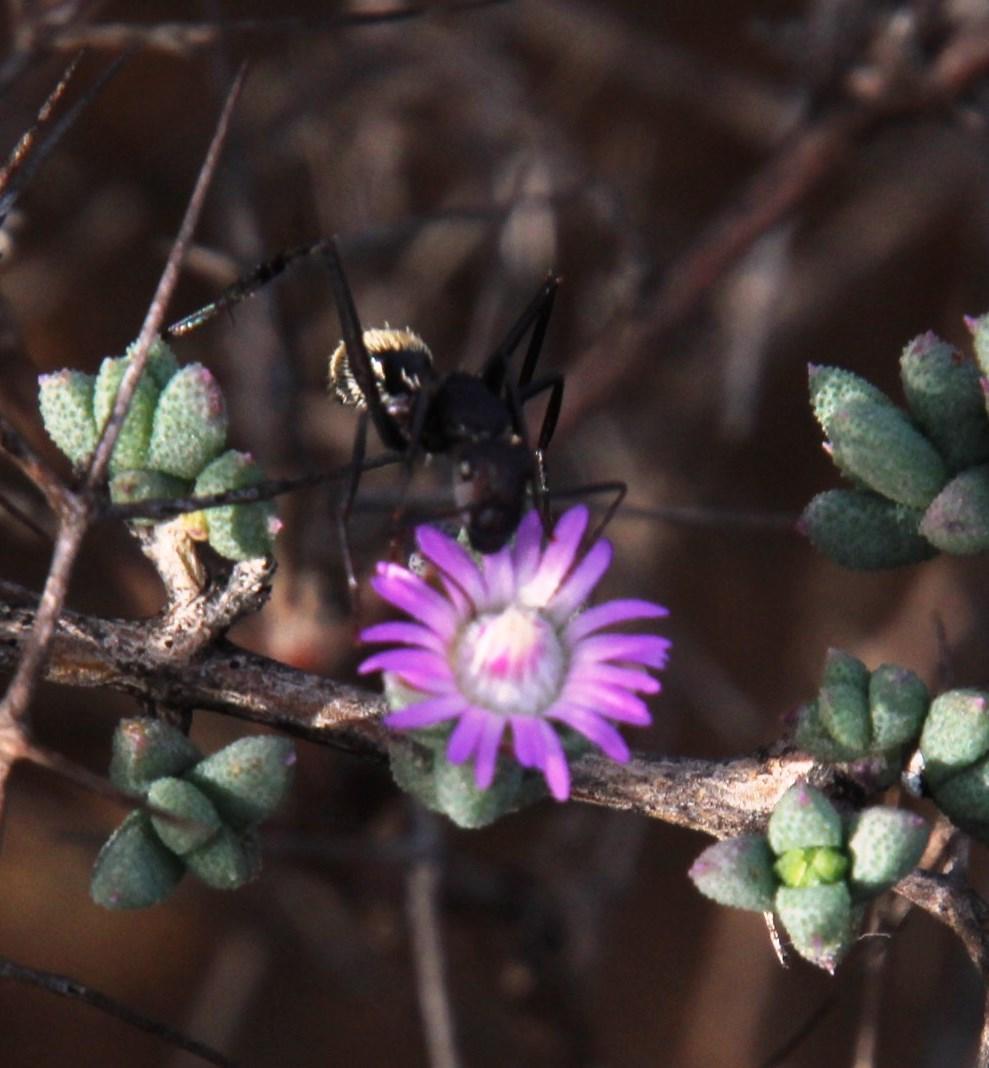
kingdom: Animalia
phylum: Arthropoda
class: Insecta
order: Hymenoptera
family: Formicidae
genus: Camponotus
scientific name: Camponotus storeatus
